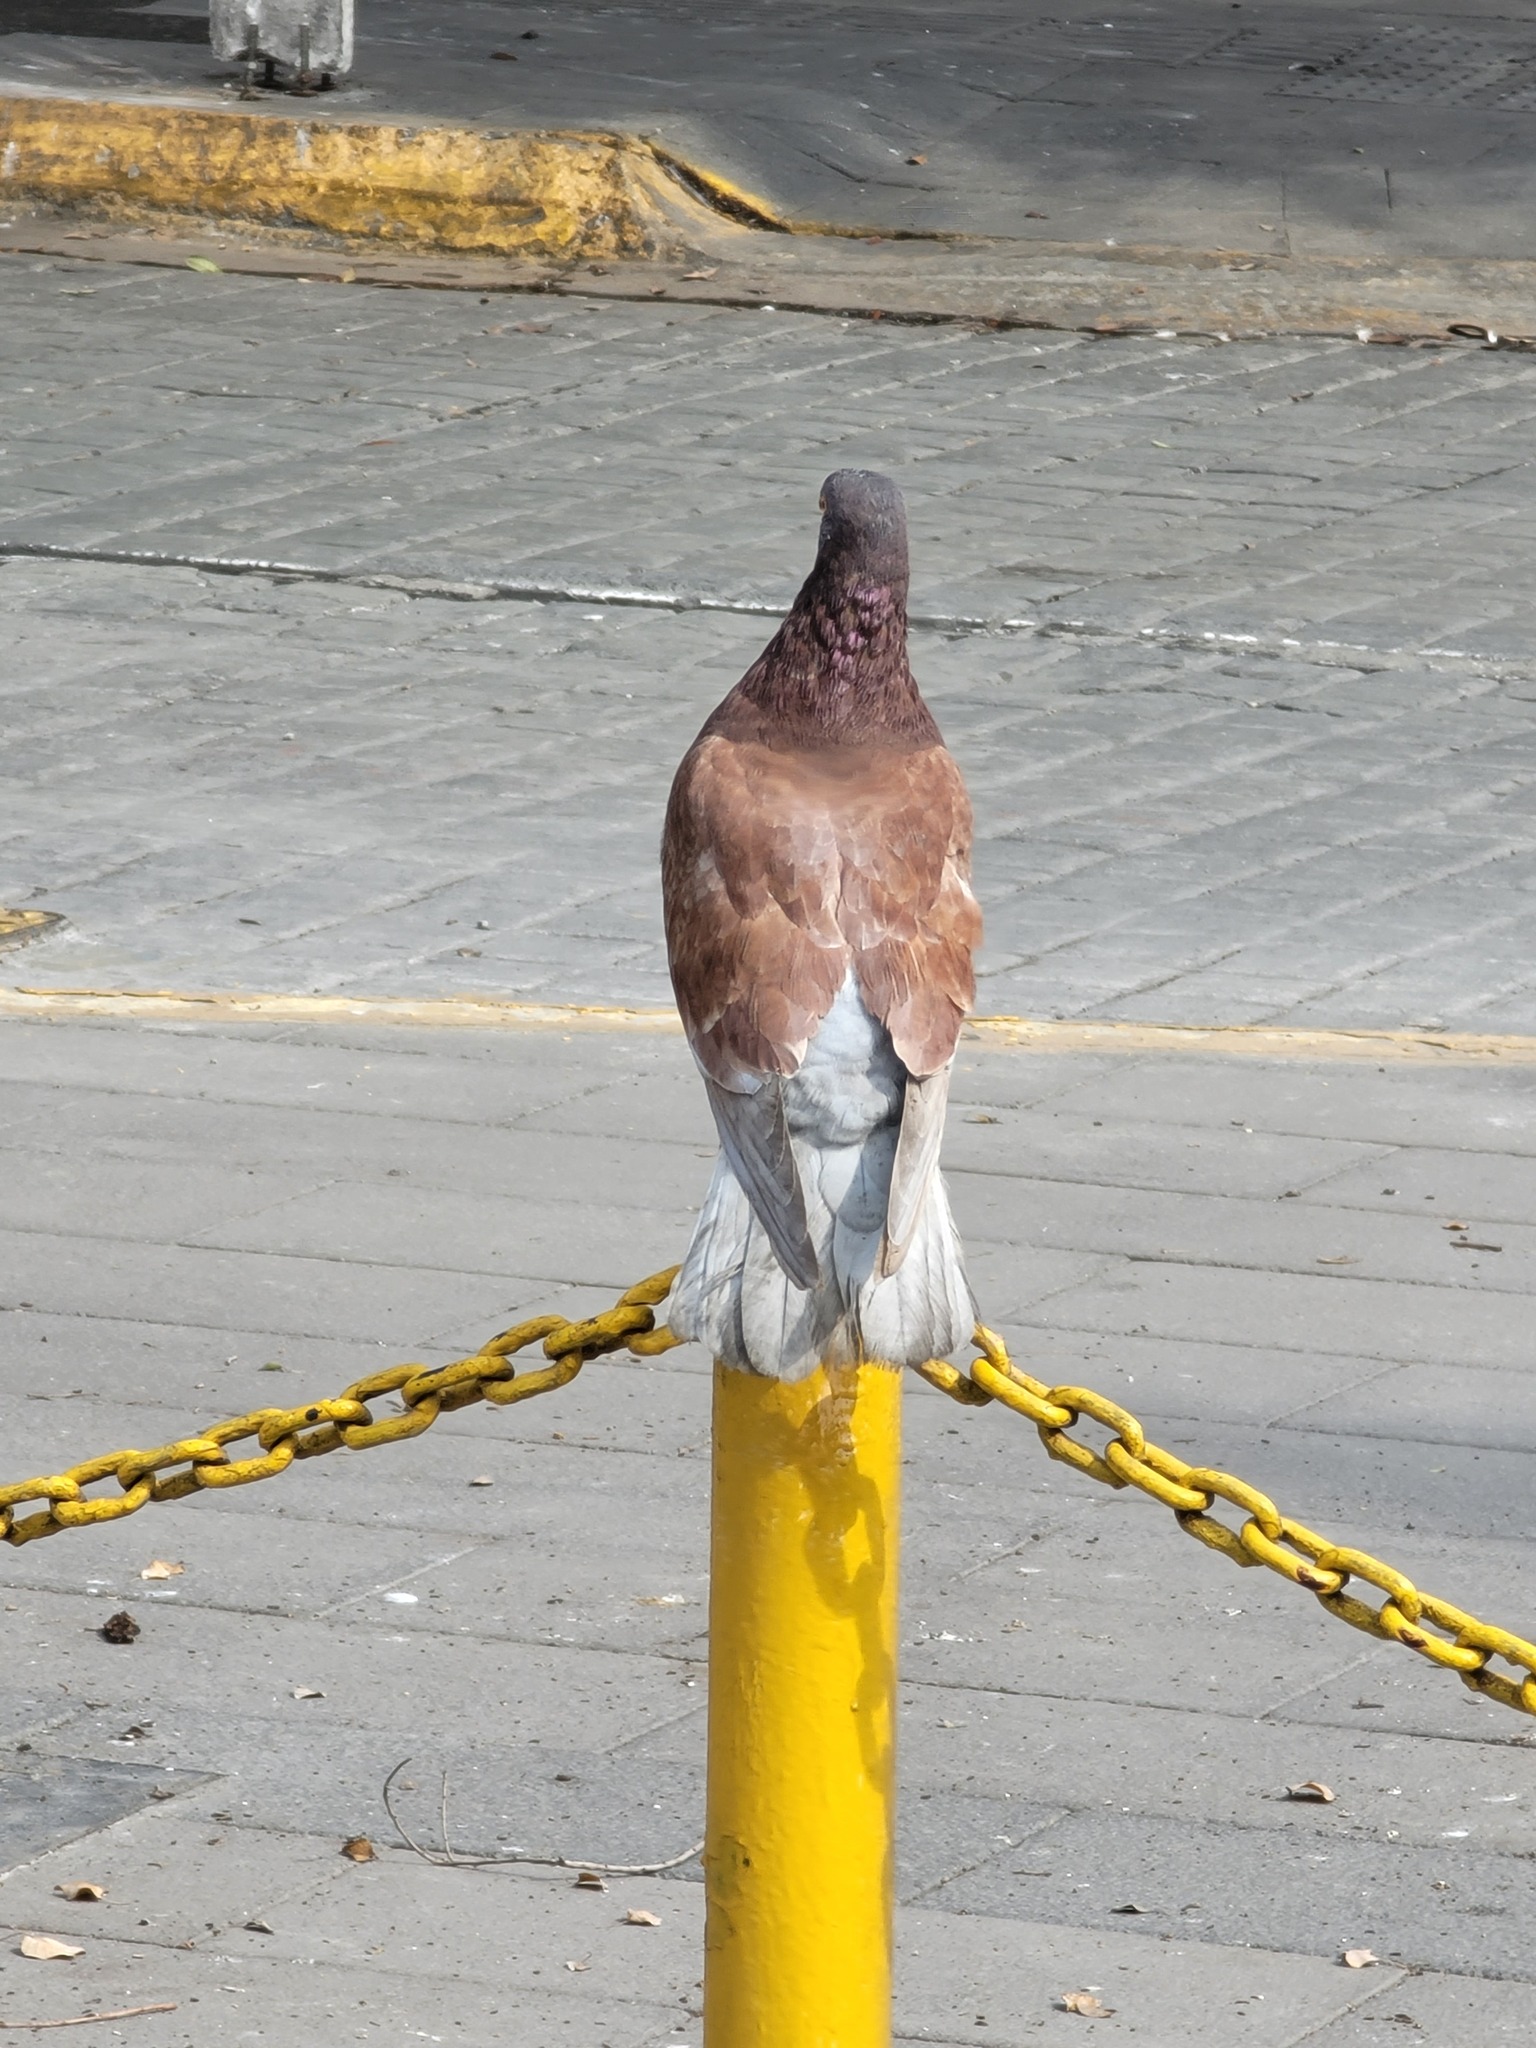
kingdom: Animalia
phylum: Chordata
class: Aves
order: Columbiformes
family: Columbidae
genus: Columba
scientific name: Columba livia
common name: Rock pigeon
